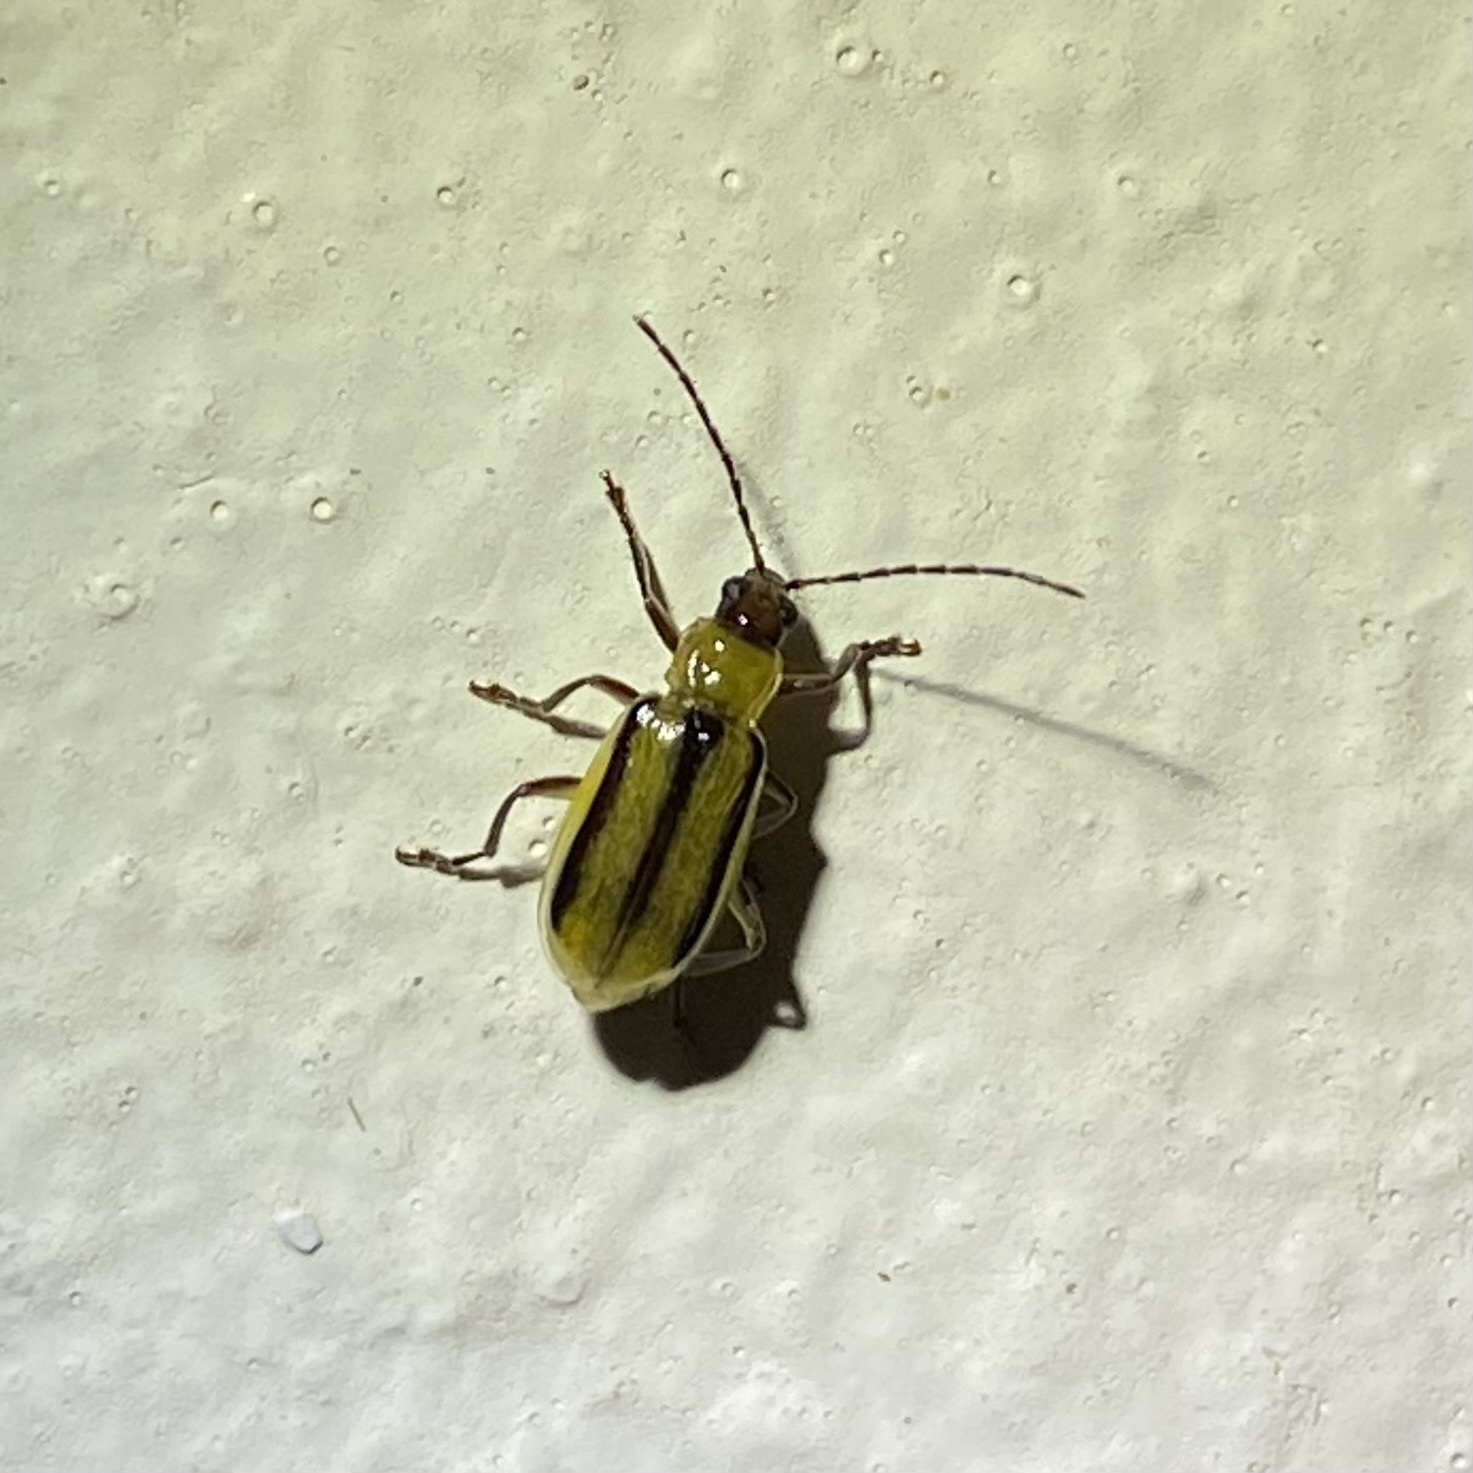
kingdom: Animalia
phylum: Arthropoda
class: Insecta
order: Coleoptera
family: Chrysomelidae
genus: Diabrotica
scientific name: Diabrotica virgifera
